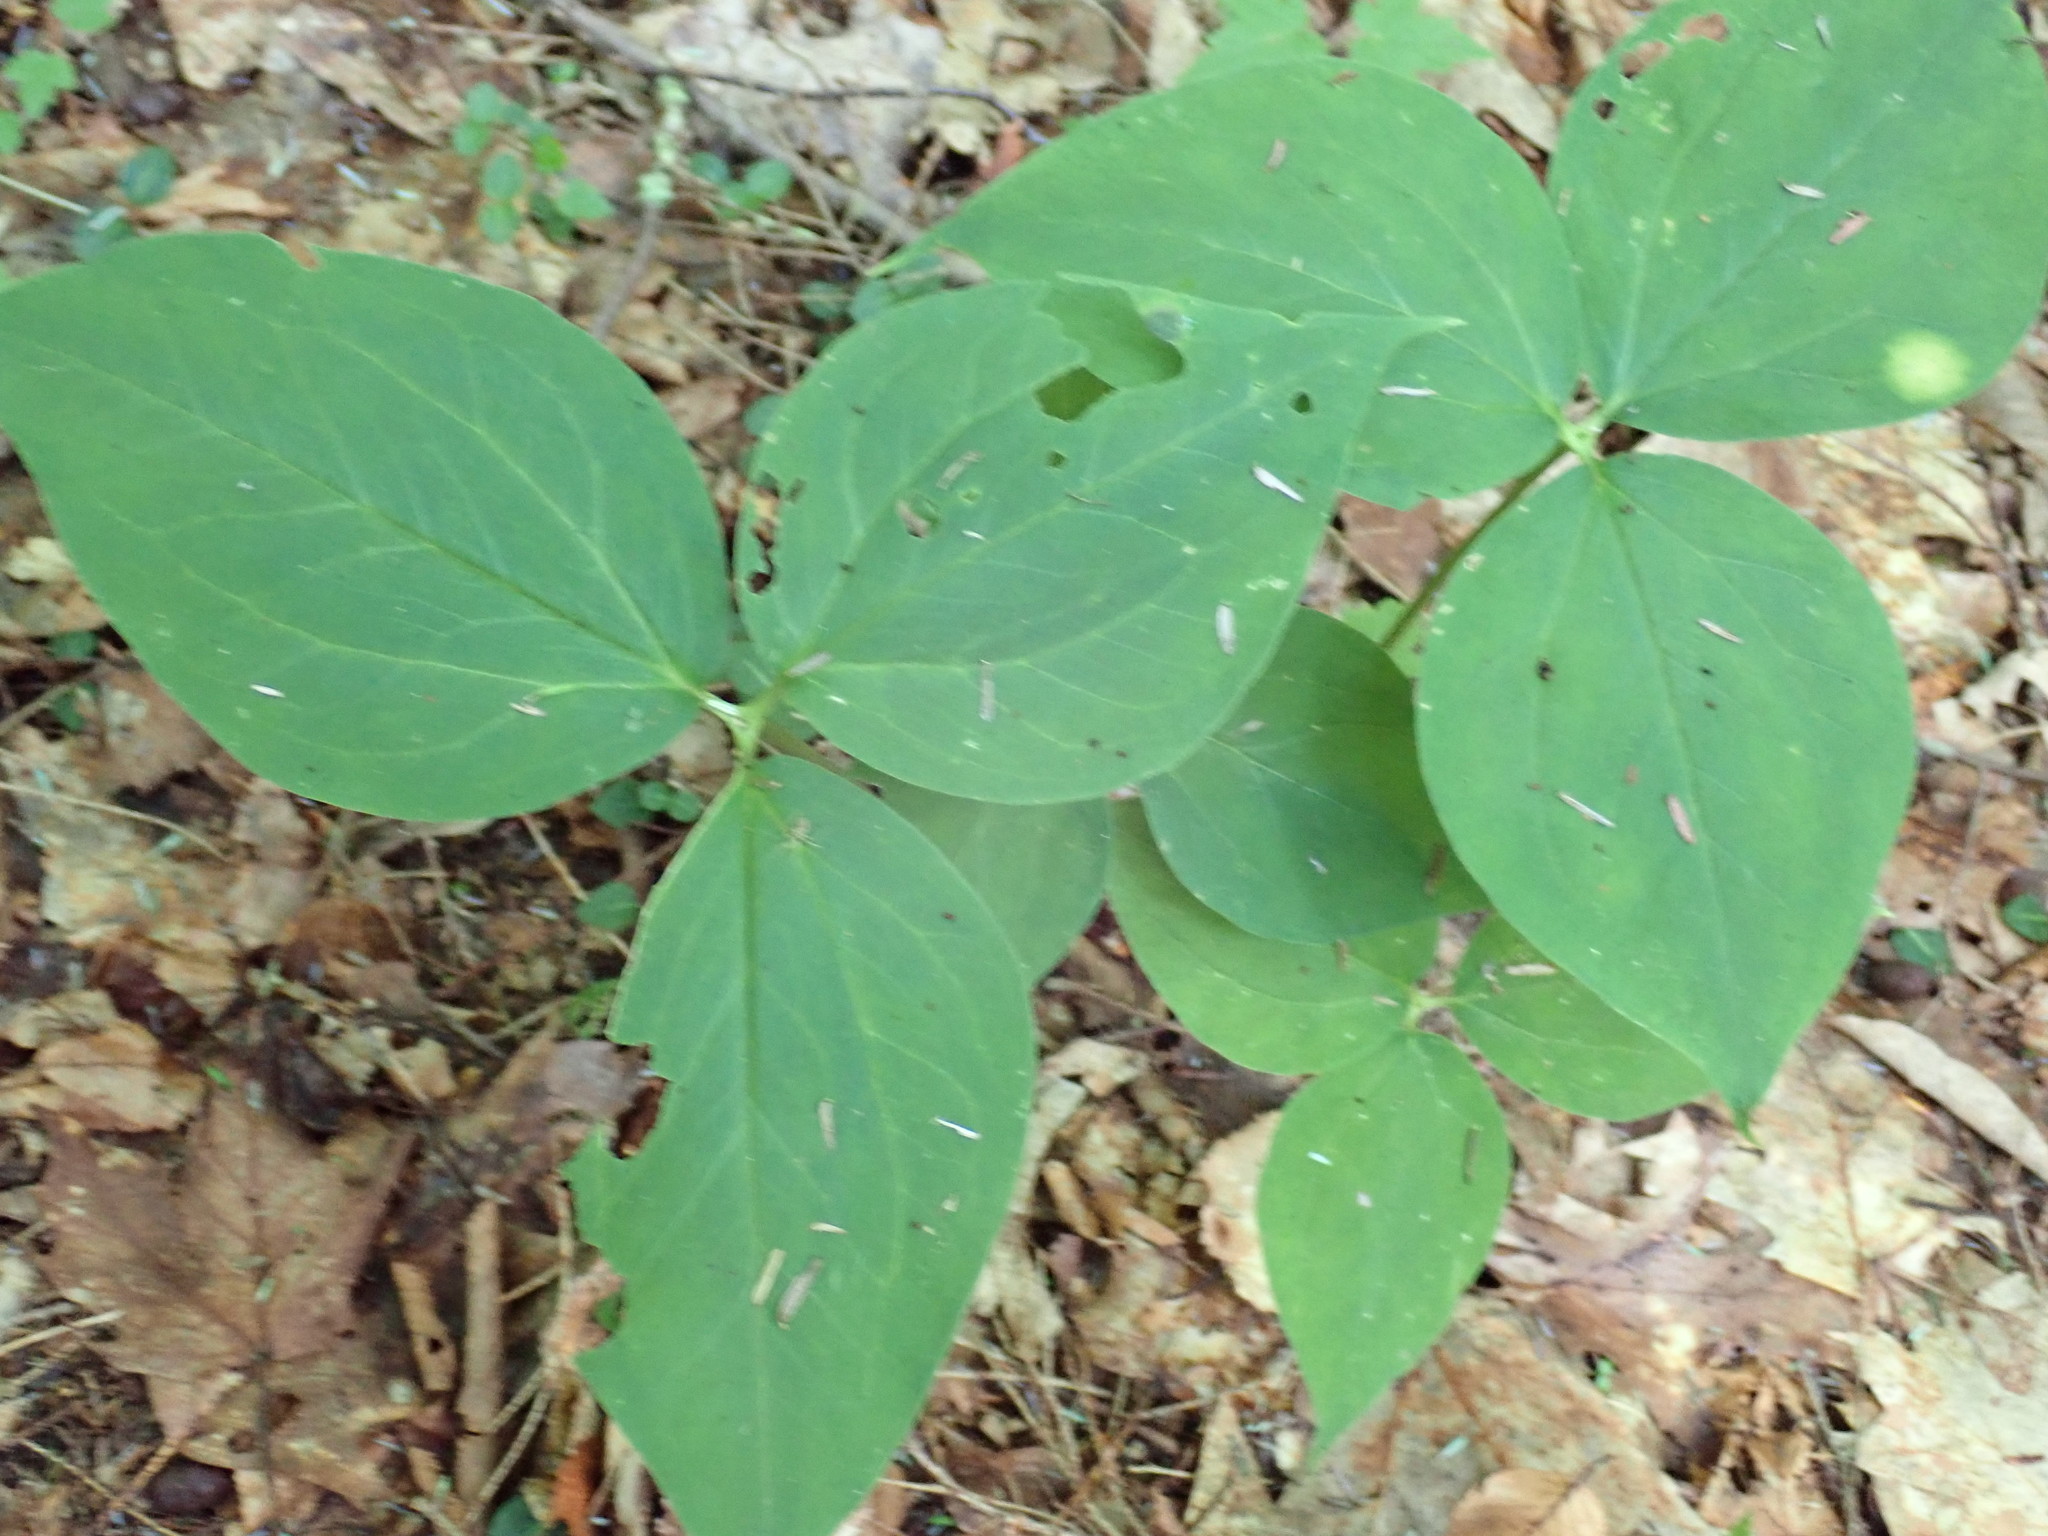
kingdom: Plantae
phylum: Tracheophyta
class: Liliopsida
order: Liliales
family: Melanthiaceae
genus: Trillium
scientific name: Trillium undulatum
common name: Paint trillium
